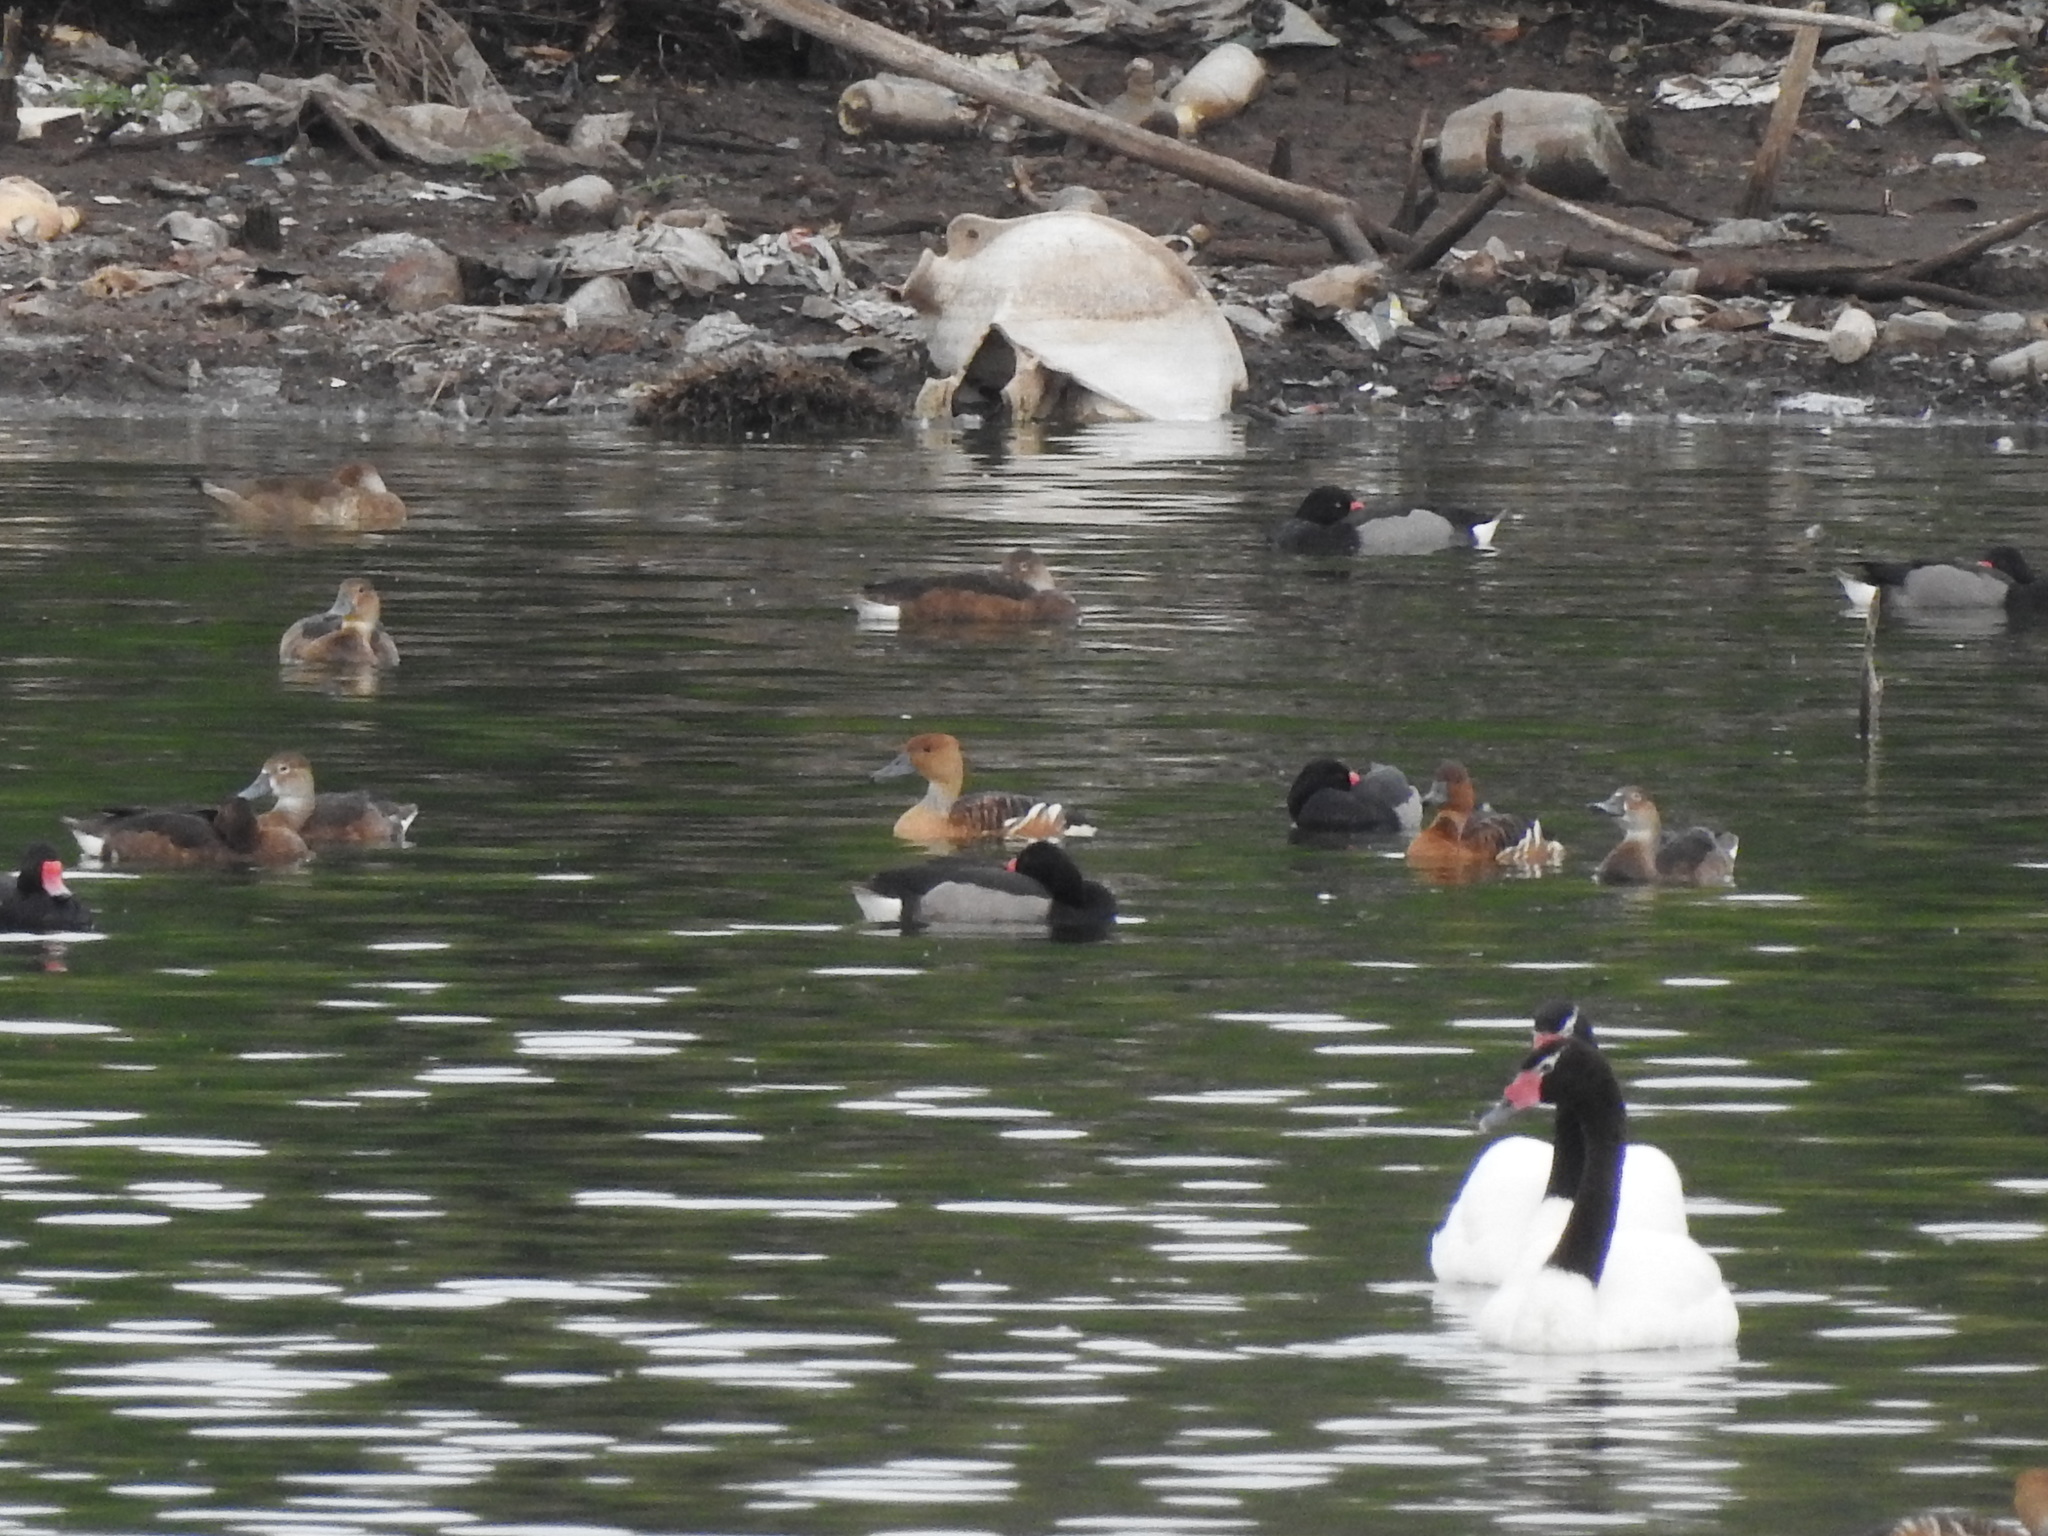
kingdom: Animalia
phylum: Chordata
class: Aves
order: Anseriformes
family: Anatidae
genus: Cygnus
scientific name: Cygnus melancoryphus
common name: Black-necked swan
